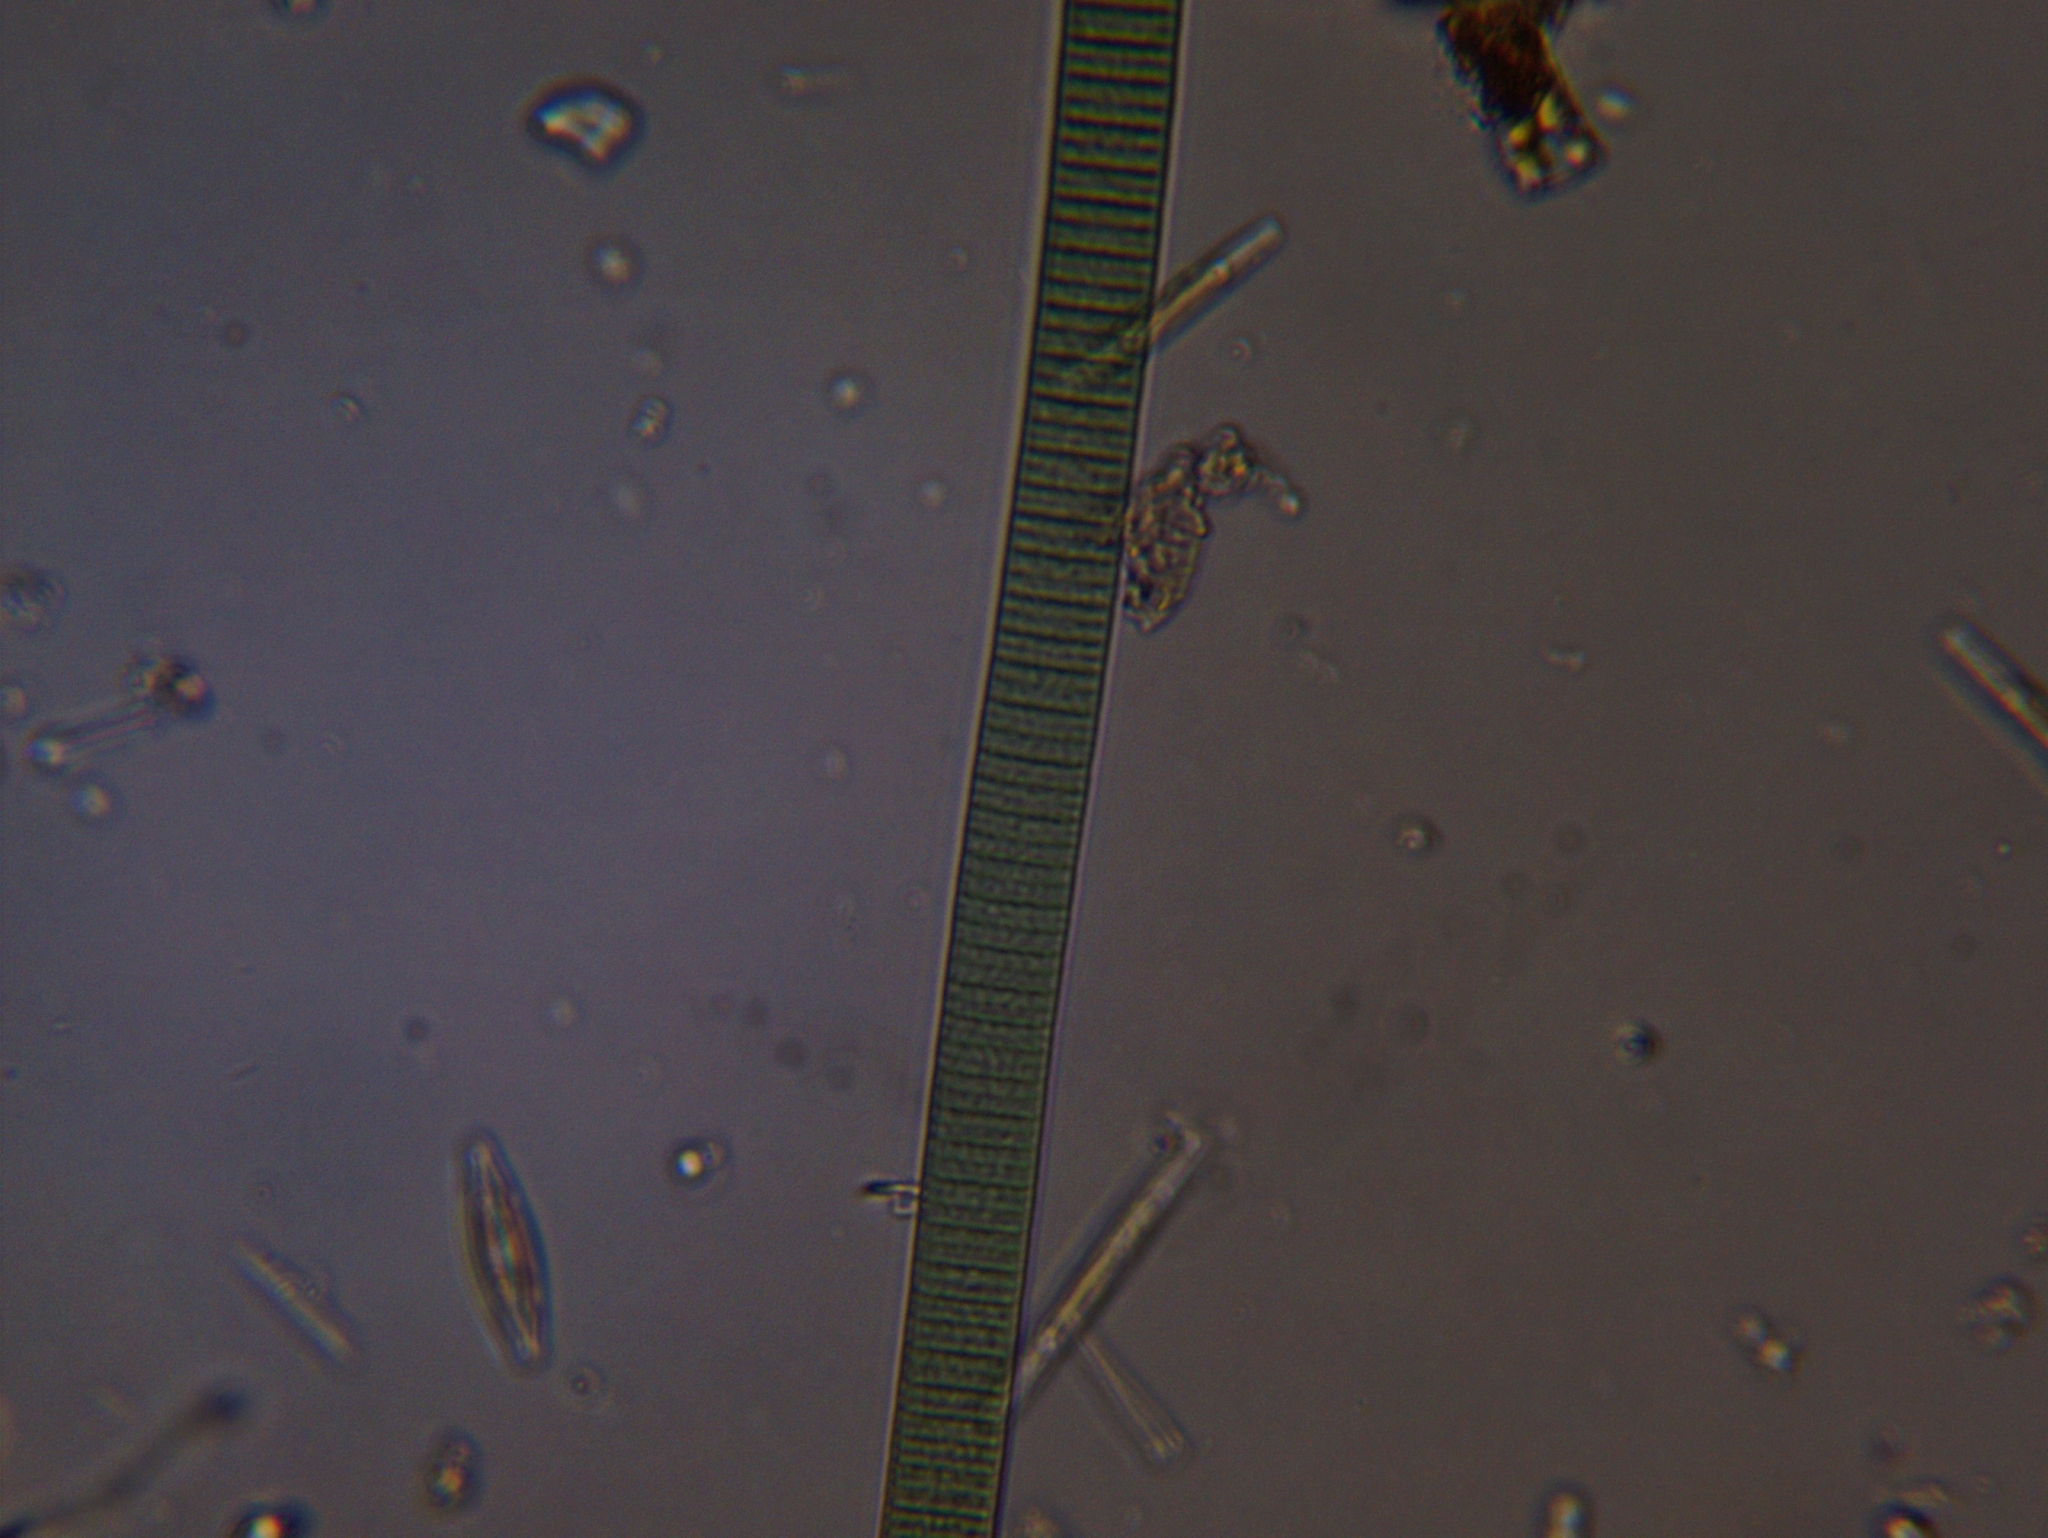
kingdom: Bacteria
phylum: Cyanobacteria
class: Cyanobacteriia
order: Cyanobacteriales
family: Oscillatoriaceae
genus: Oscillatoria
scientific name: Oscillatoria
